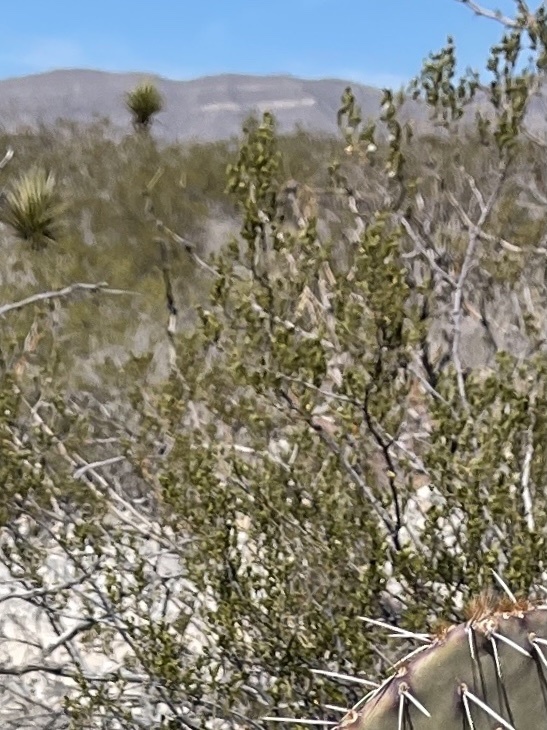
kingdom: Plantae
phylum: Tracheophyta
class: Magnoliopsida
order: Zygophyllales
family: Zygophyllaceae
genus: Larrea
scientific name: Larrea tridentata
